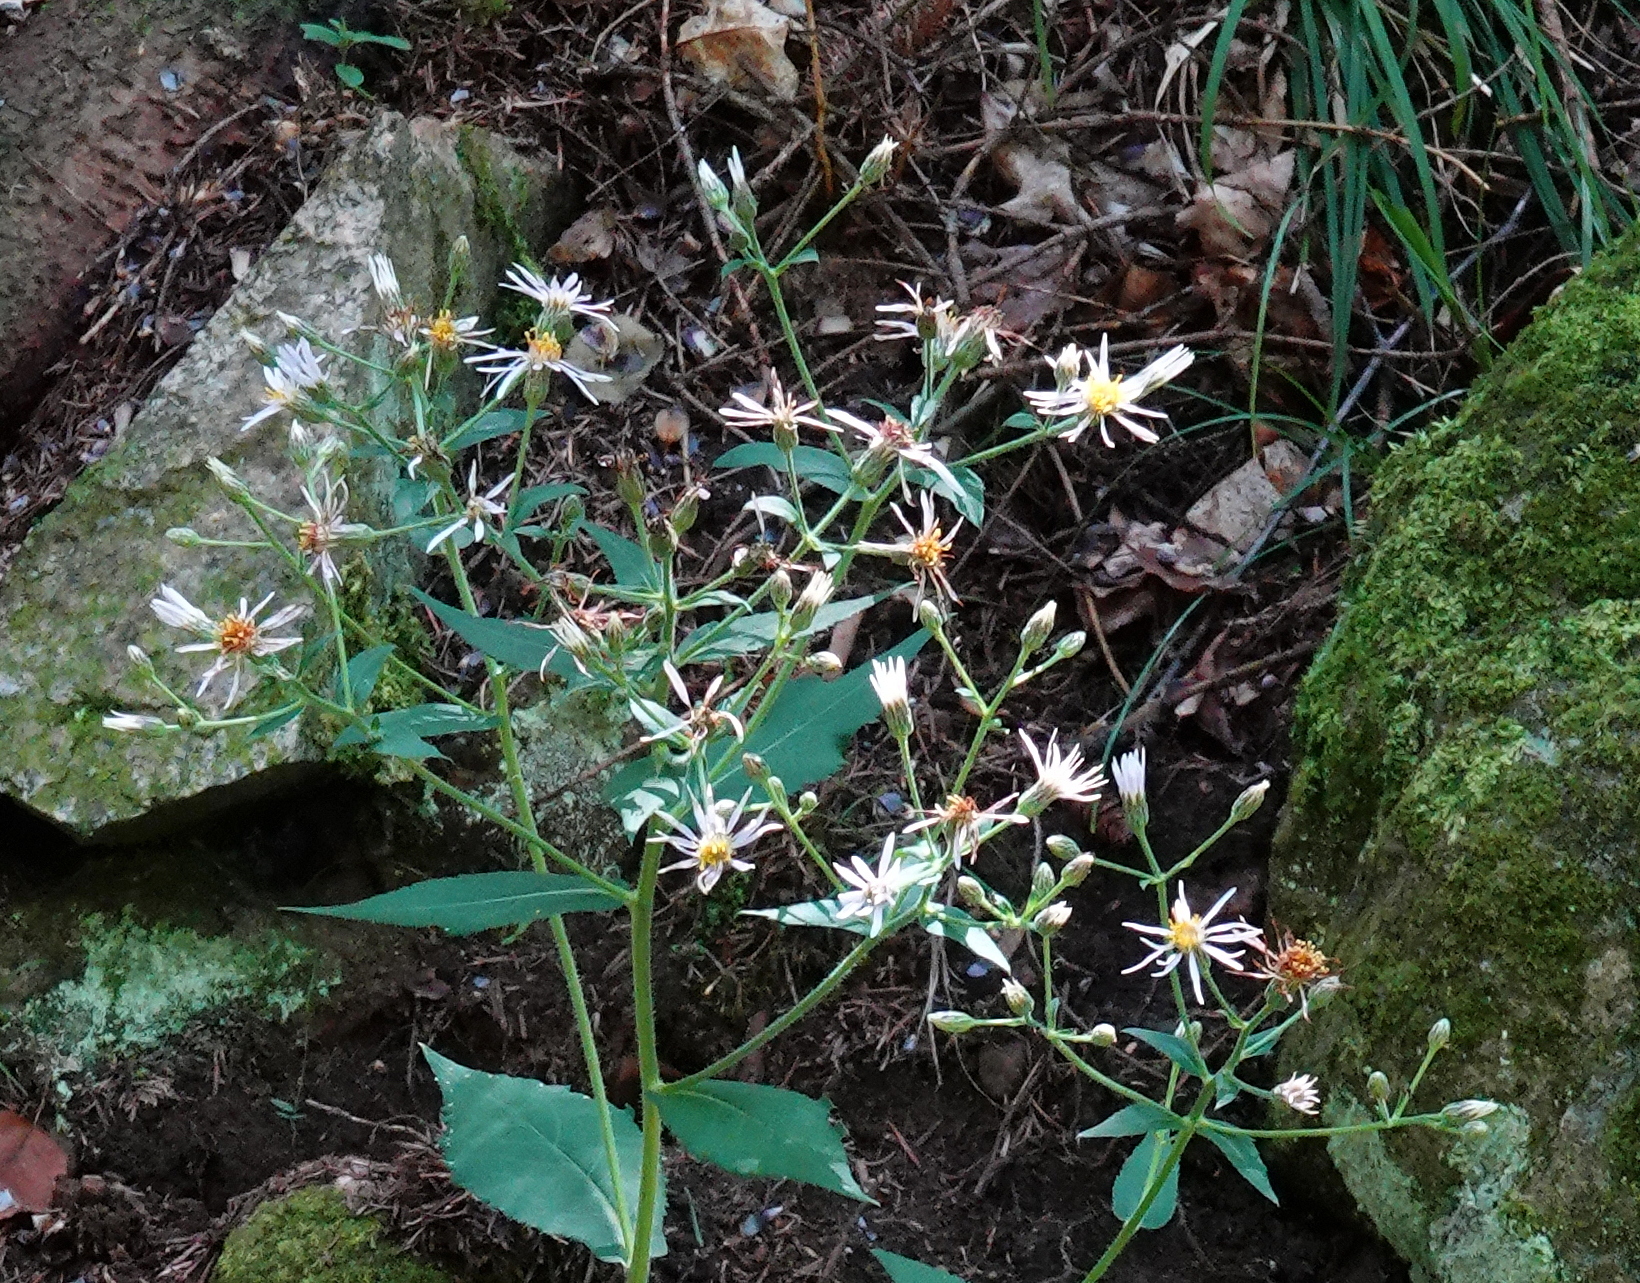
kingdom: Plantae
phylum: Tracheophyta
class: Magnoliopsida
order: Asterales
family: Asteraceae
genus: Eurybia
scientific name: Eurybia macrophylla
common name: Big-leaved aster
